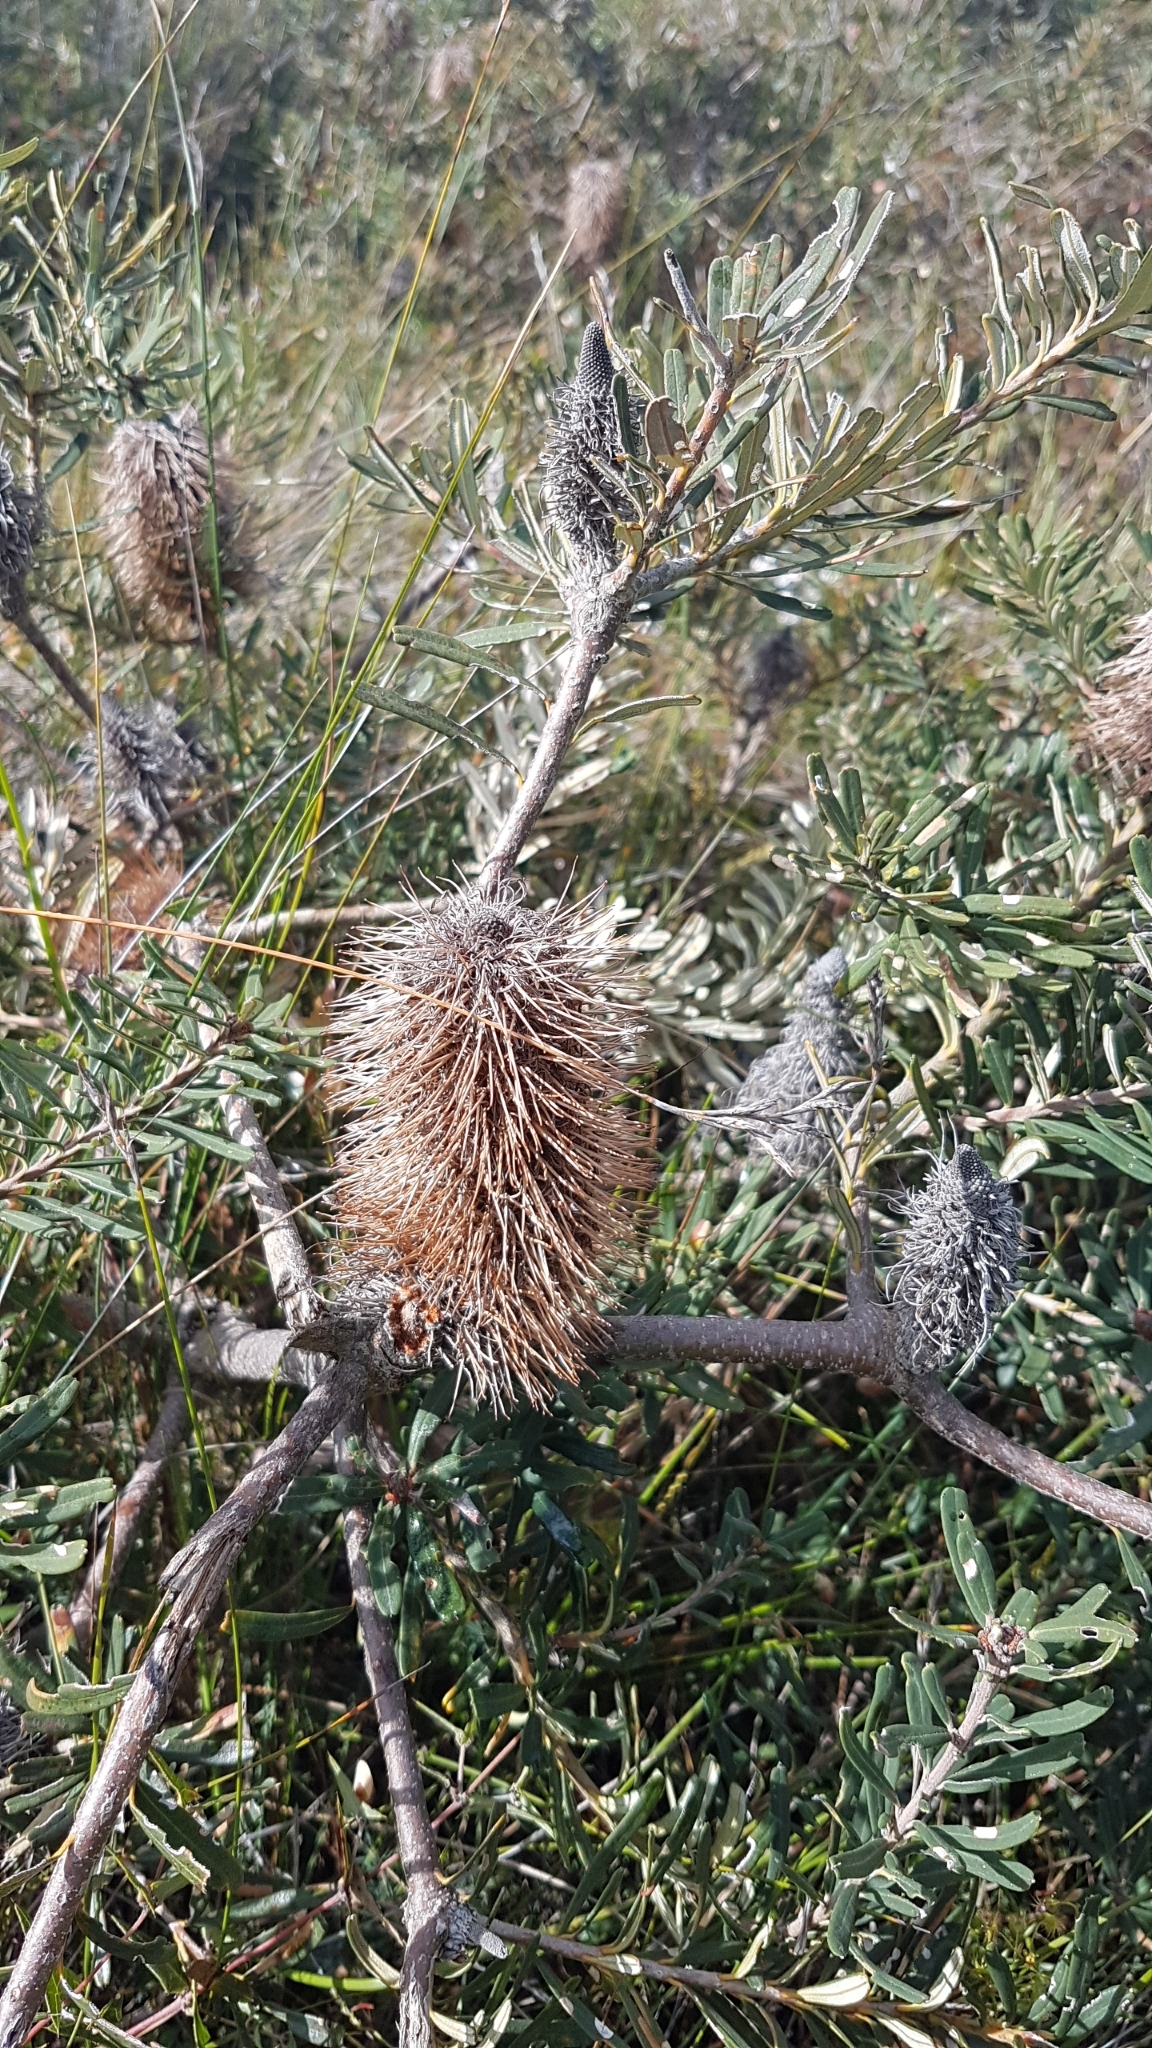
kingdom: Plantae
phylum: Tracheophyta
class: Magnoliopsida
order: Proteales
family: Proteaceae
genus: Banksia
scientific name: Banksia marginata
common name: Silver banksia
